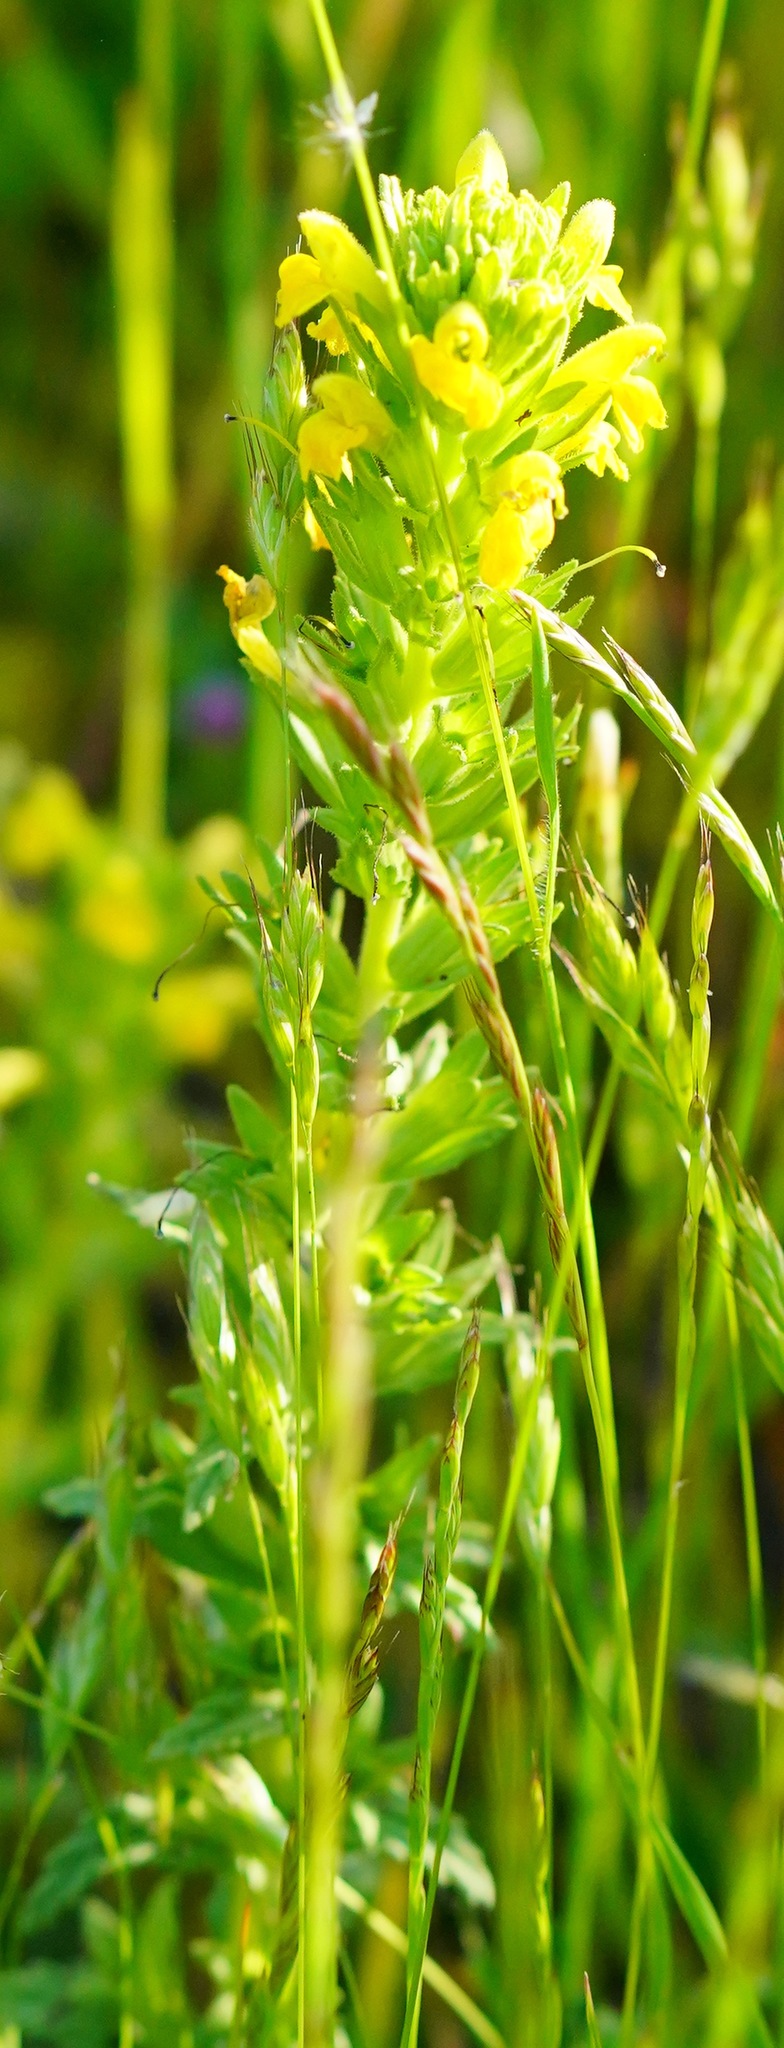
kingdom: Plantae
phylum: Tracheophyta
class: Magnoliopsida
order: Lamiales
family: Orobanchaceae
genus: Bellardia
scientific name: Bellardia viscosa
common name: Sticky parentucellia
